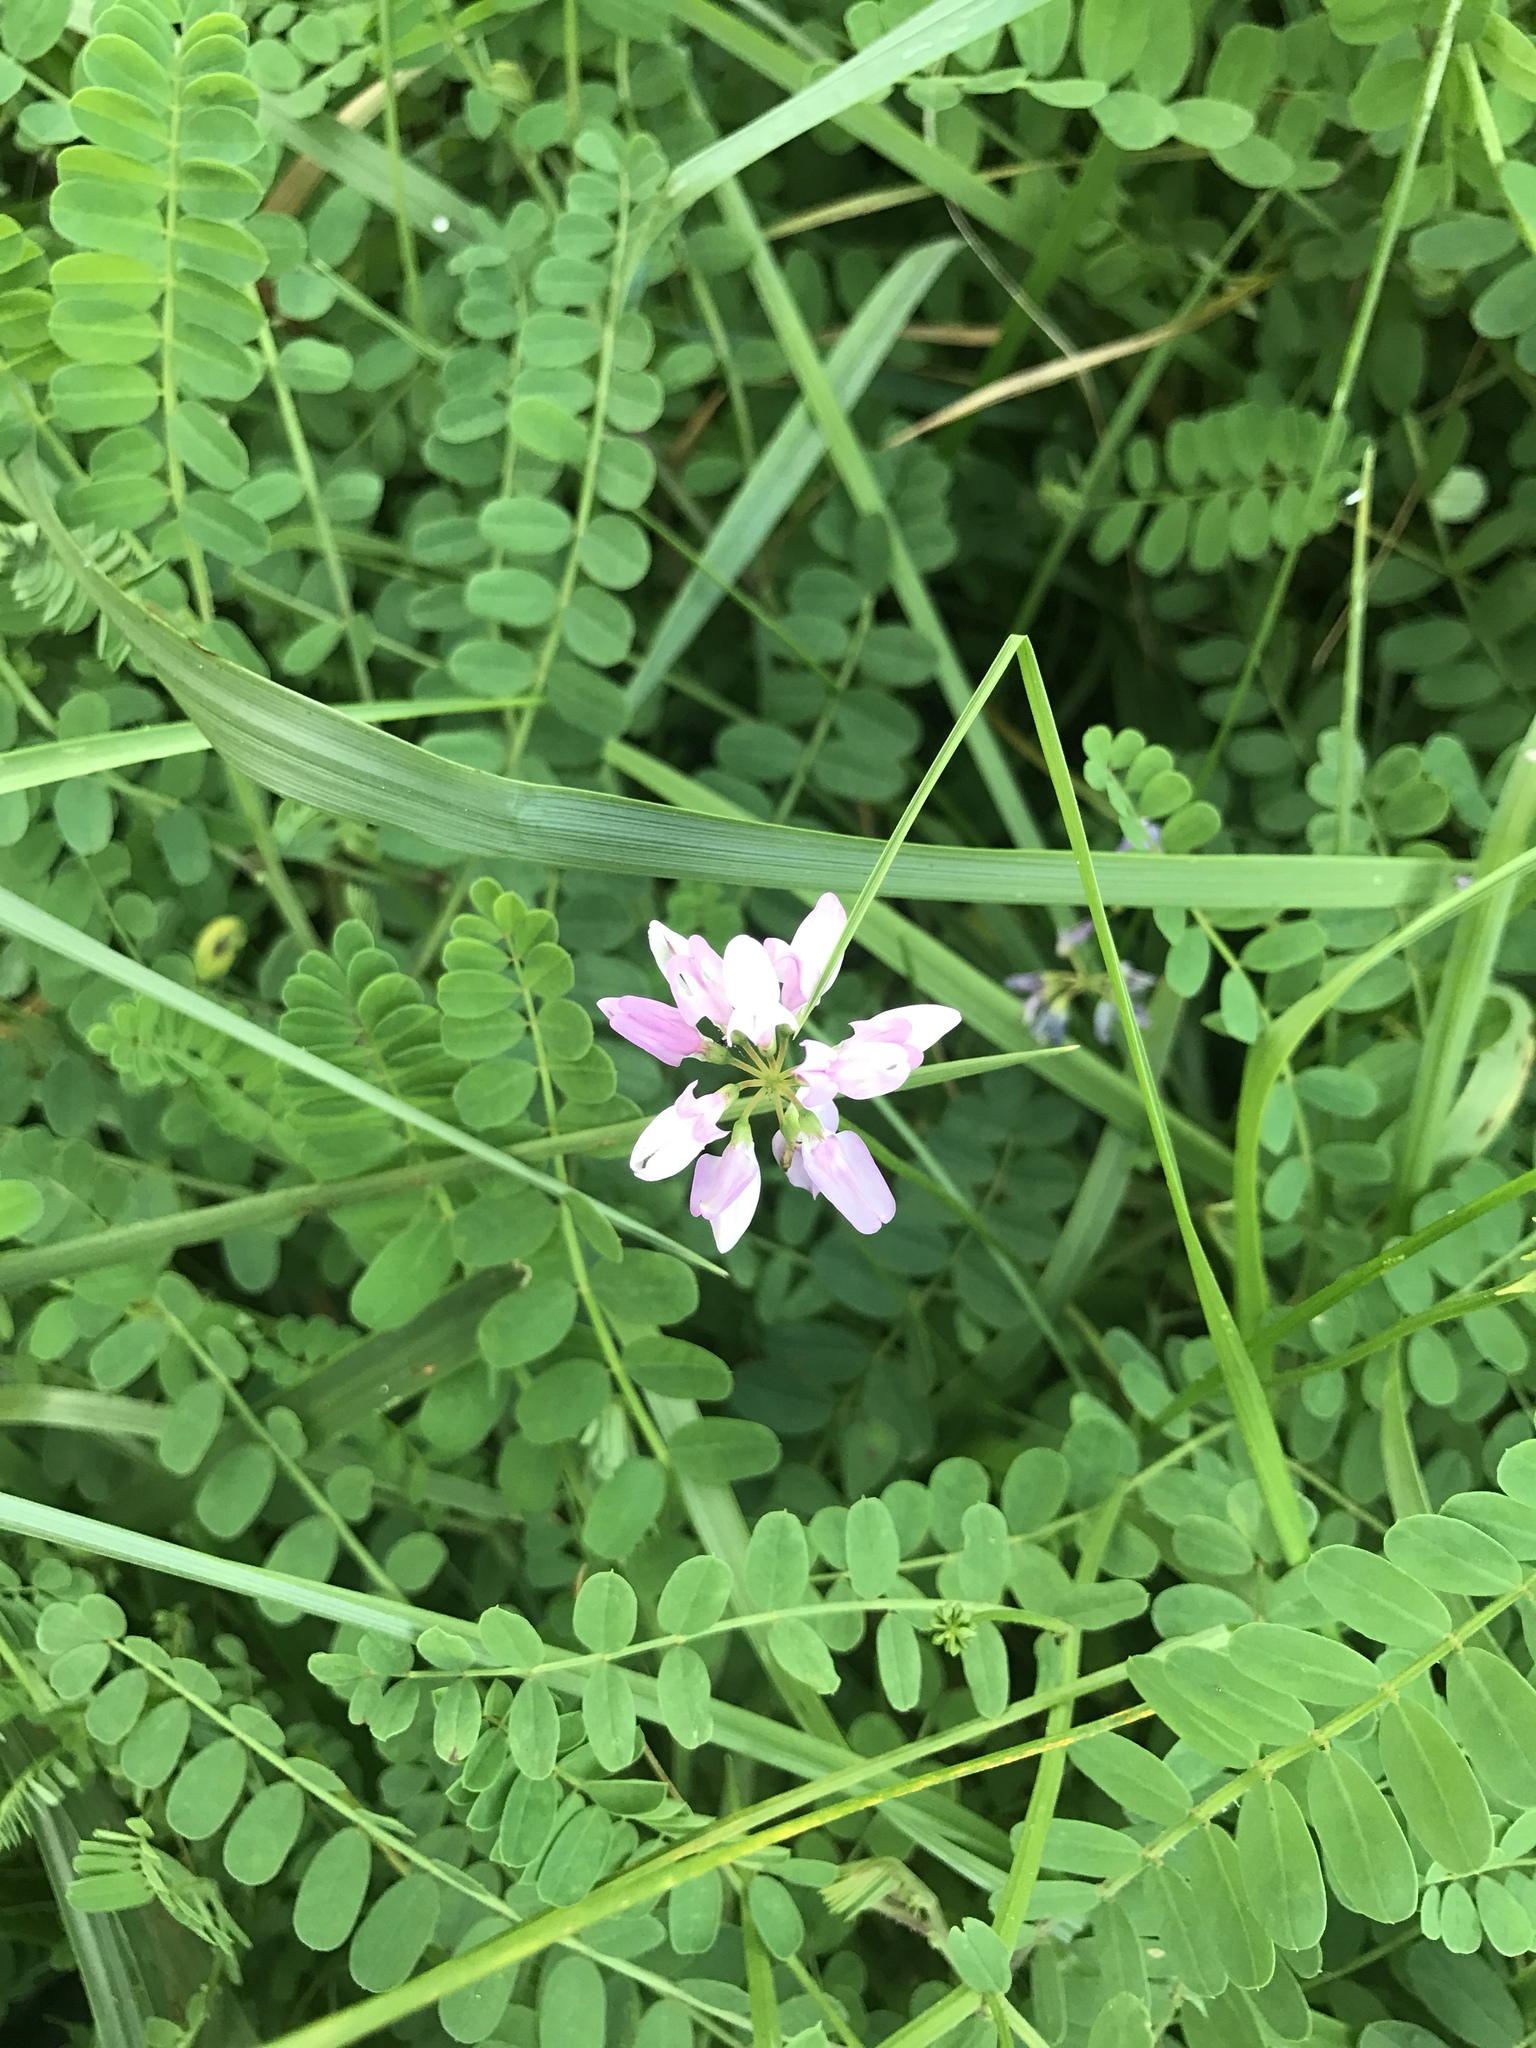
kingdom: Plantae
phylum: Tracheophyta
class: Magnoliopsida
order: Fabales
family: Fabaceae
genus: Coronilla
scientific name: Coronilla varia
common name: Crownvetch
